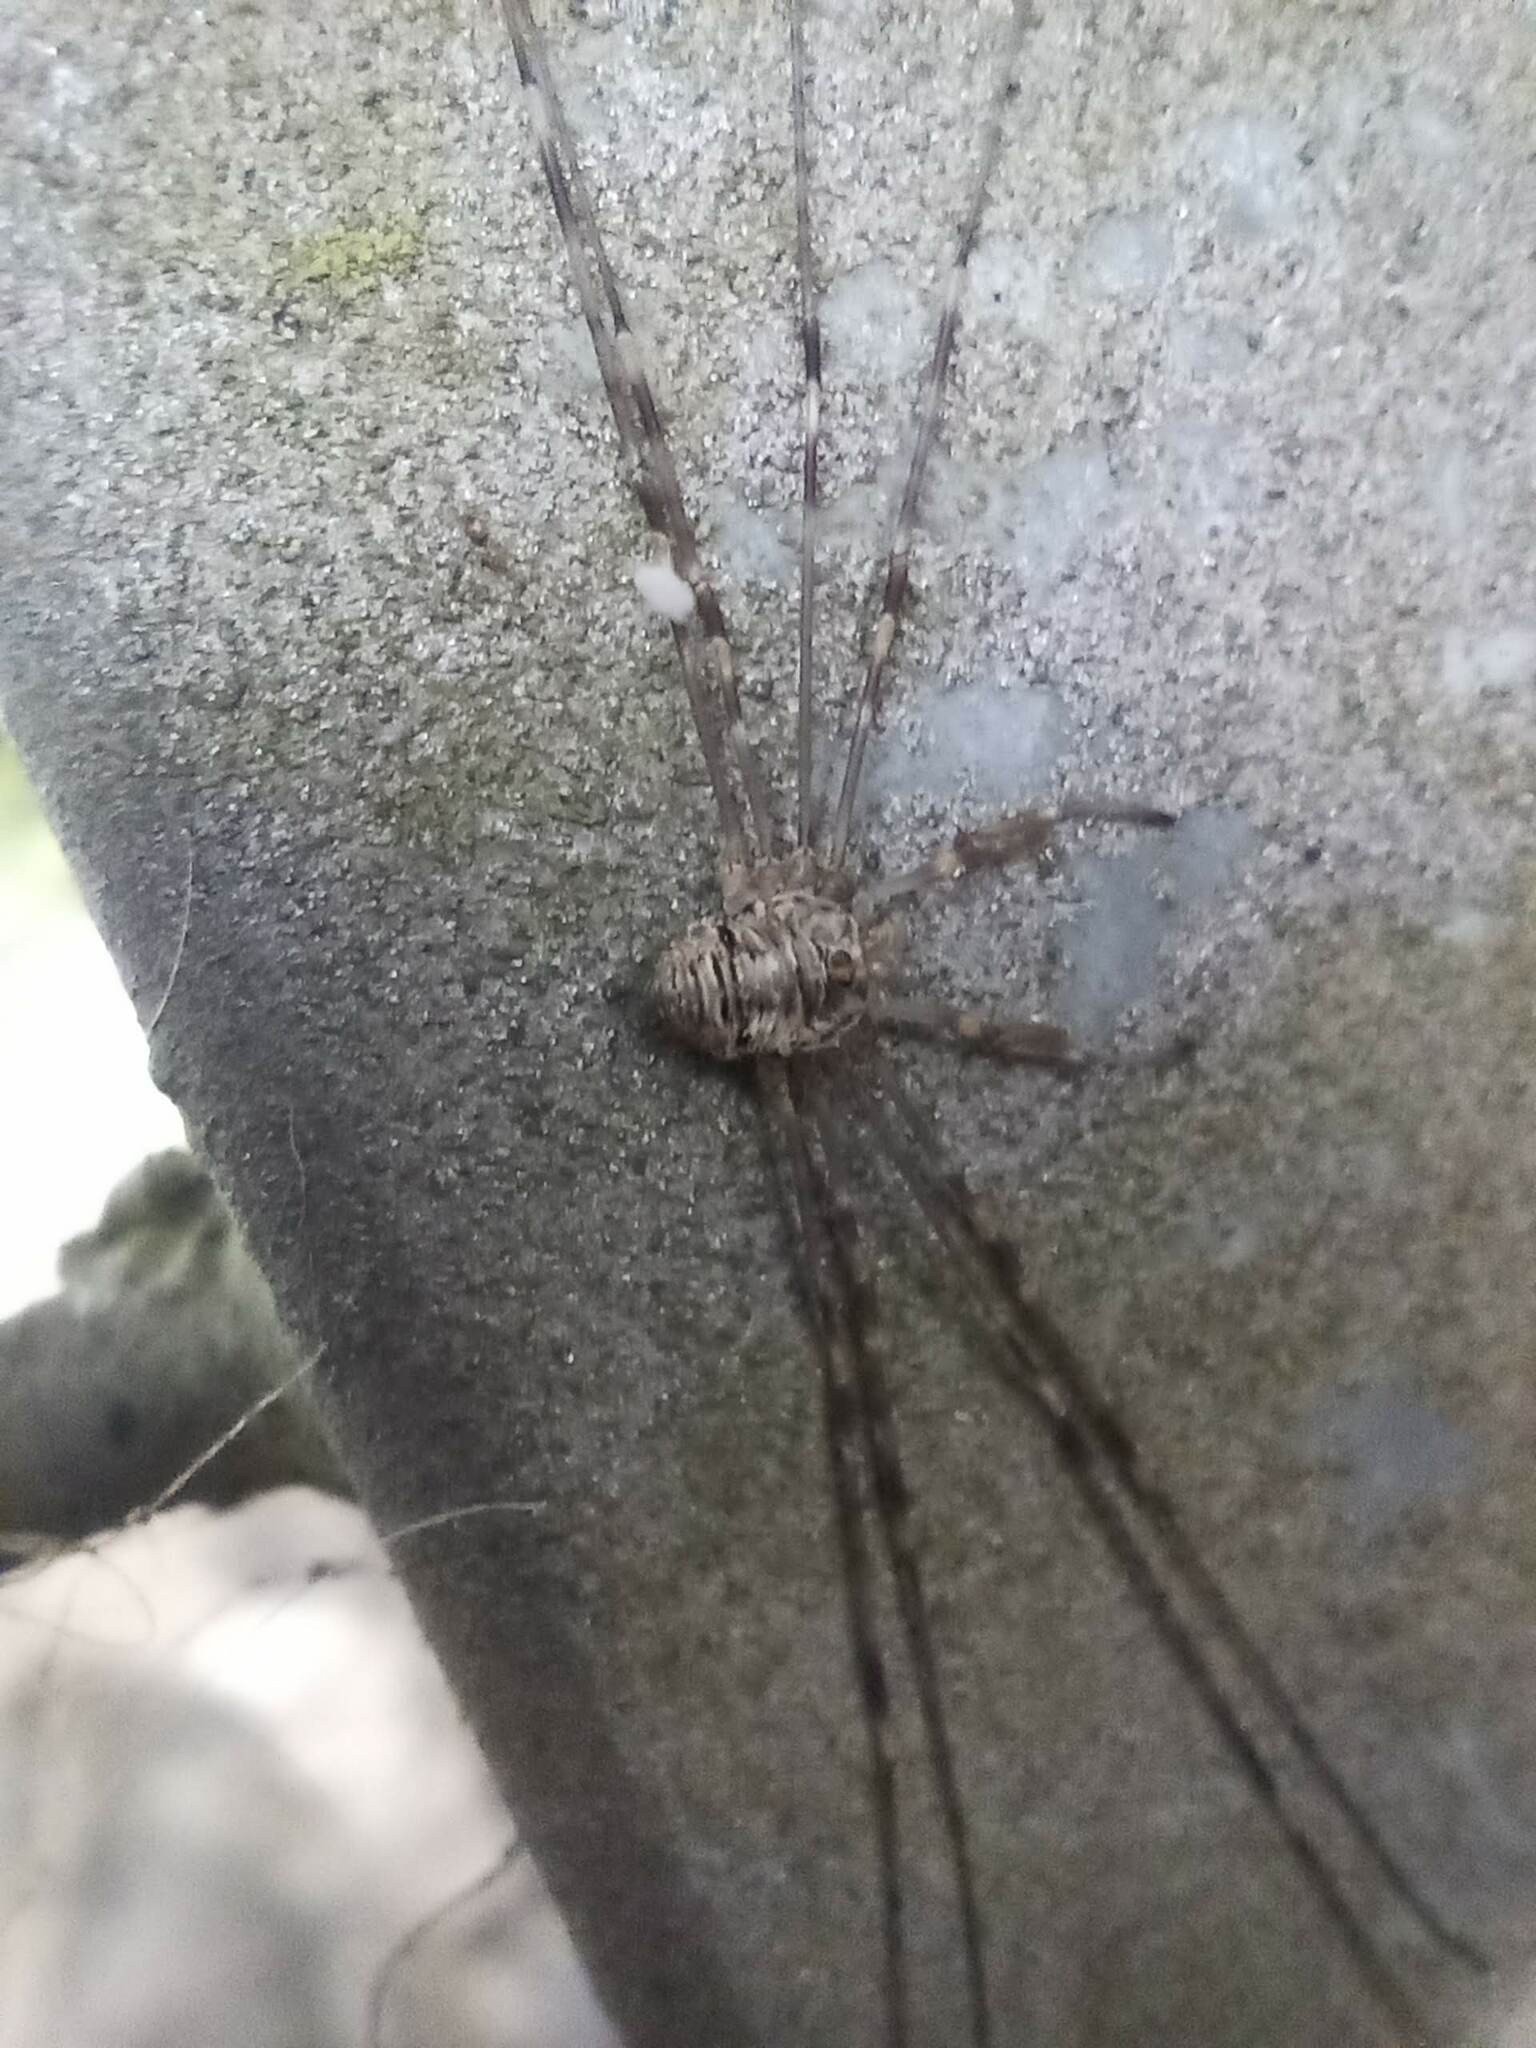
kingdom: Animalia
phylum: Arthropoda
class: Arachnida
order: Opiliones
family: Phalangiidae
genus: Dicranopalpus
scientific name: Dicranopalpus ramosus
